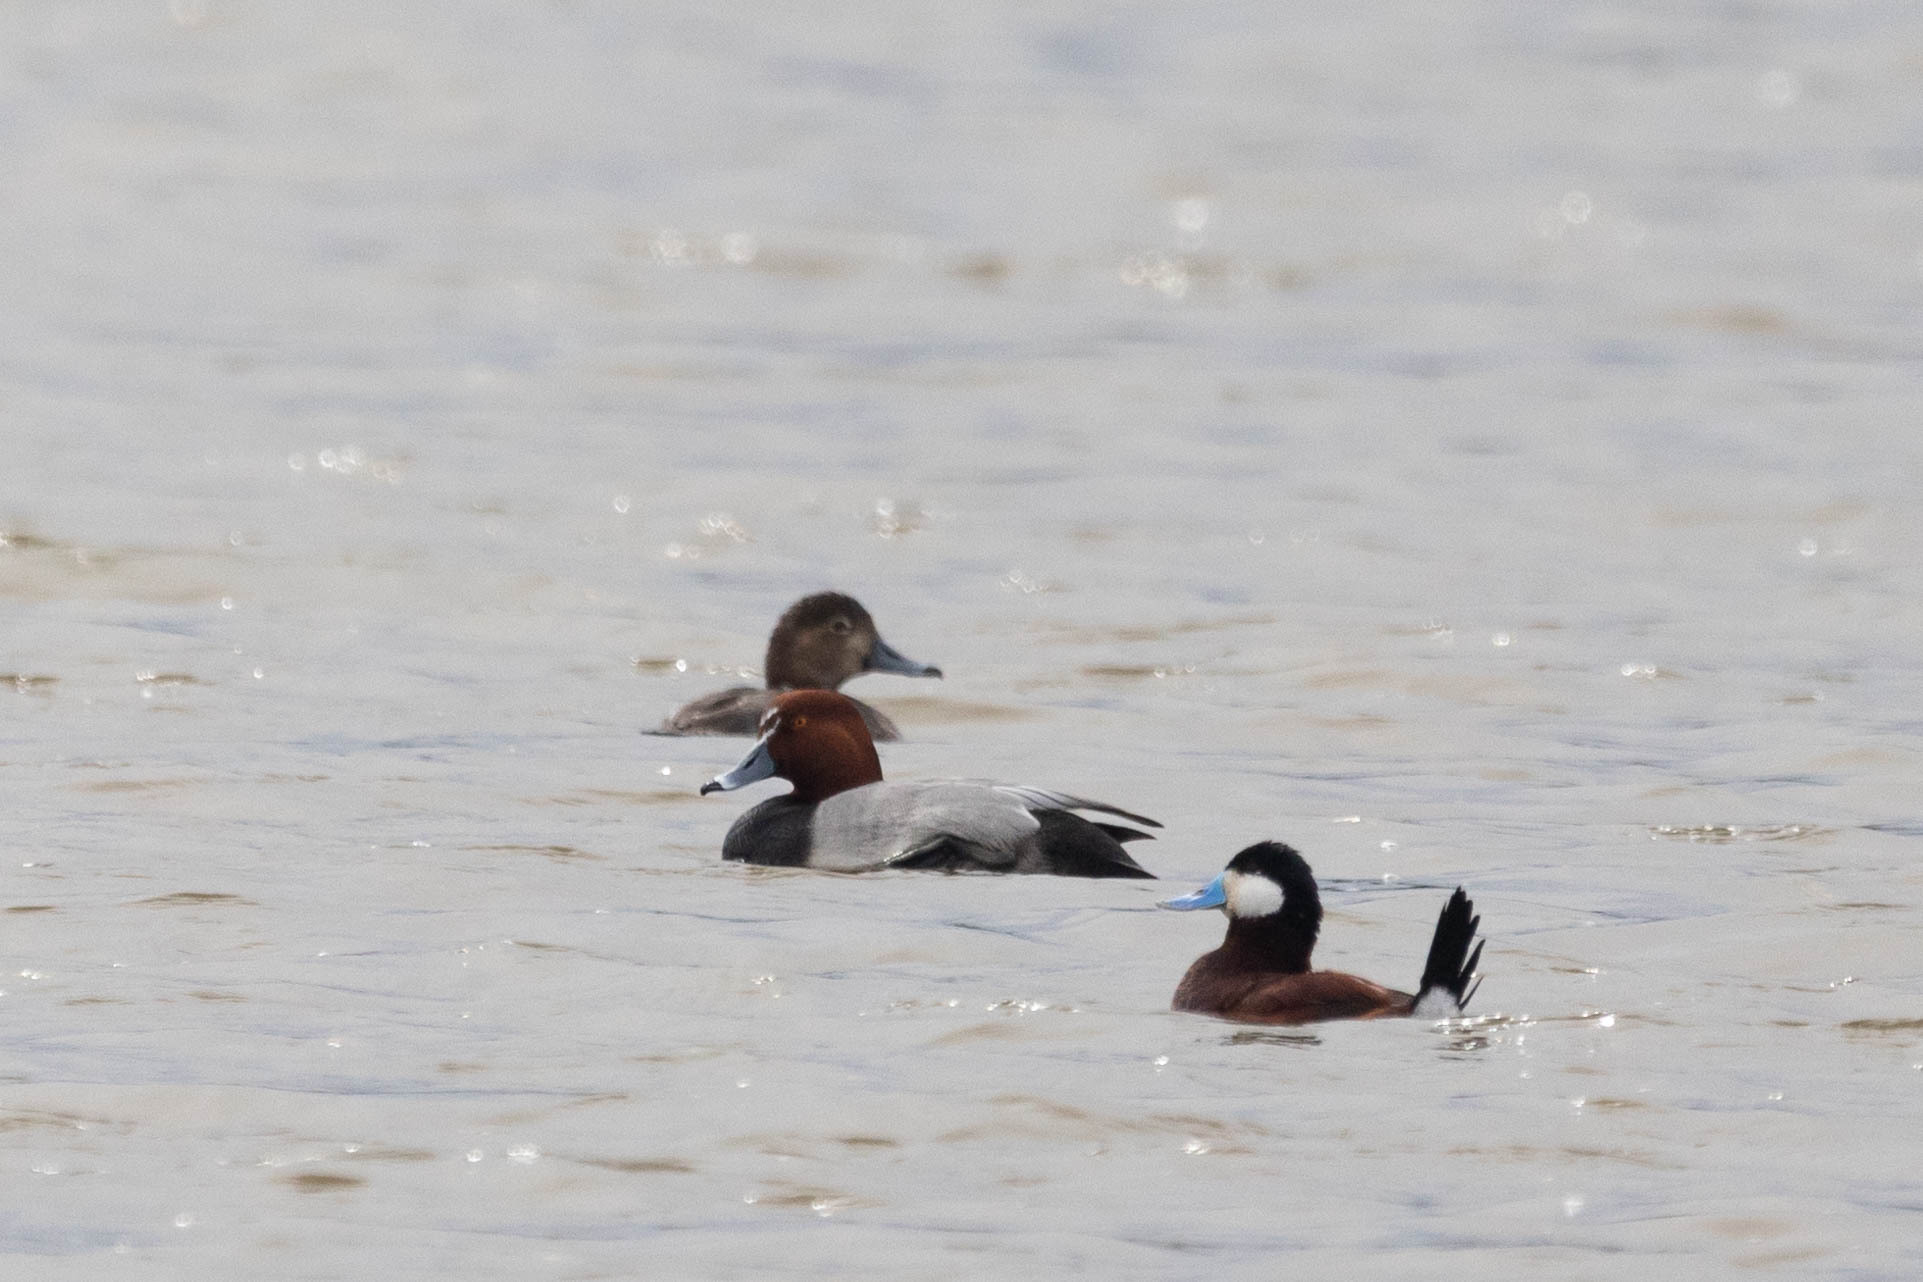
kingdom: Animalia
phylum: Chordata
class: Aves
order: Anseriformes
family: Anatidae
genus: Aythya
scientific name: Aythya americana
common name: Redhead
